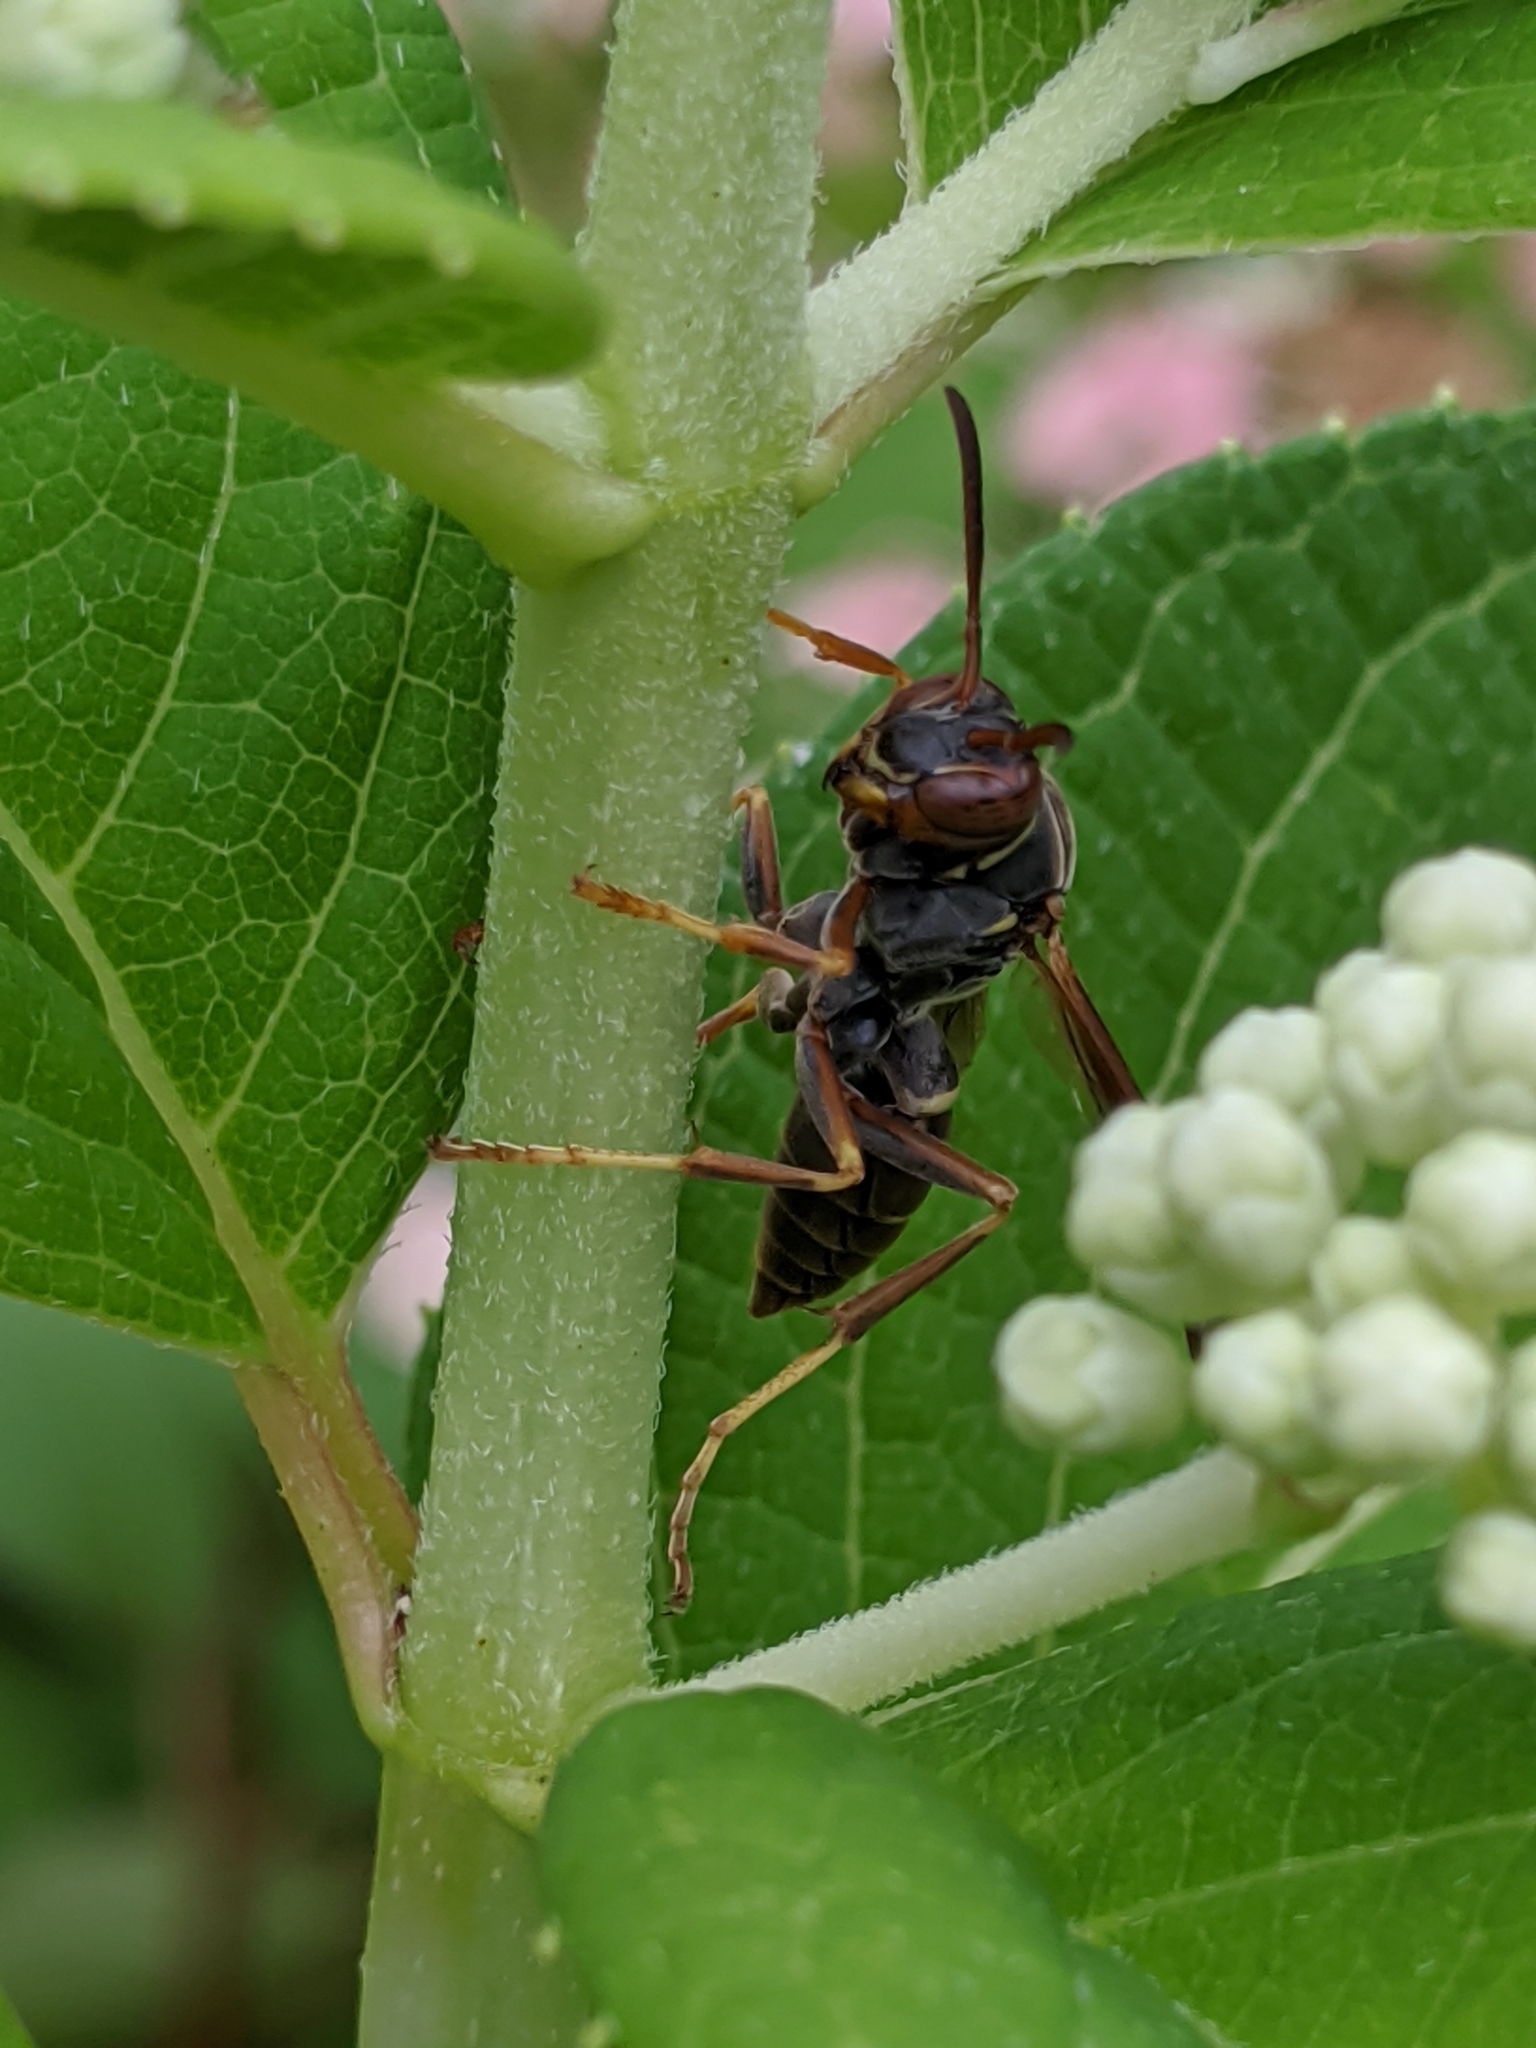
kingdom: Animalia
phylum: Arthropoda
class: Insecta
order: Hymenoptera
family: Eumenidae
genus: Polistes
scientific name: Polistes fuscatus
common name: Dark paper wasp
